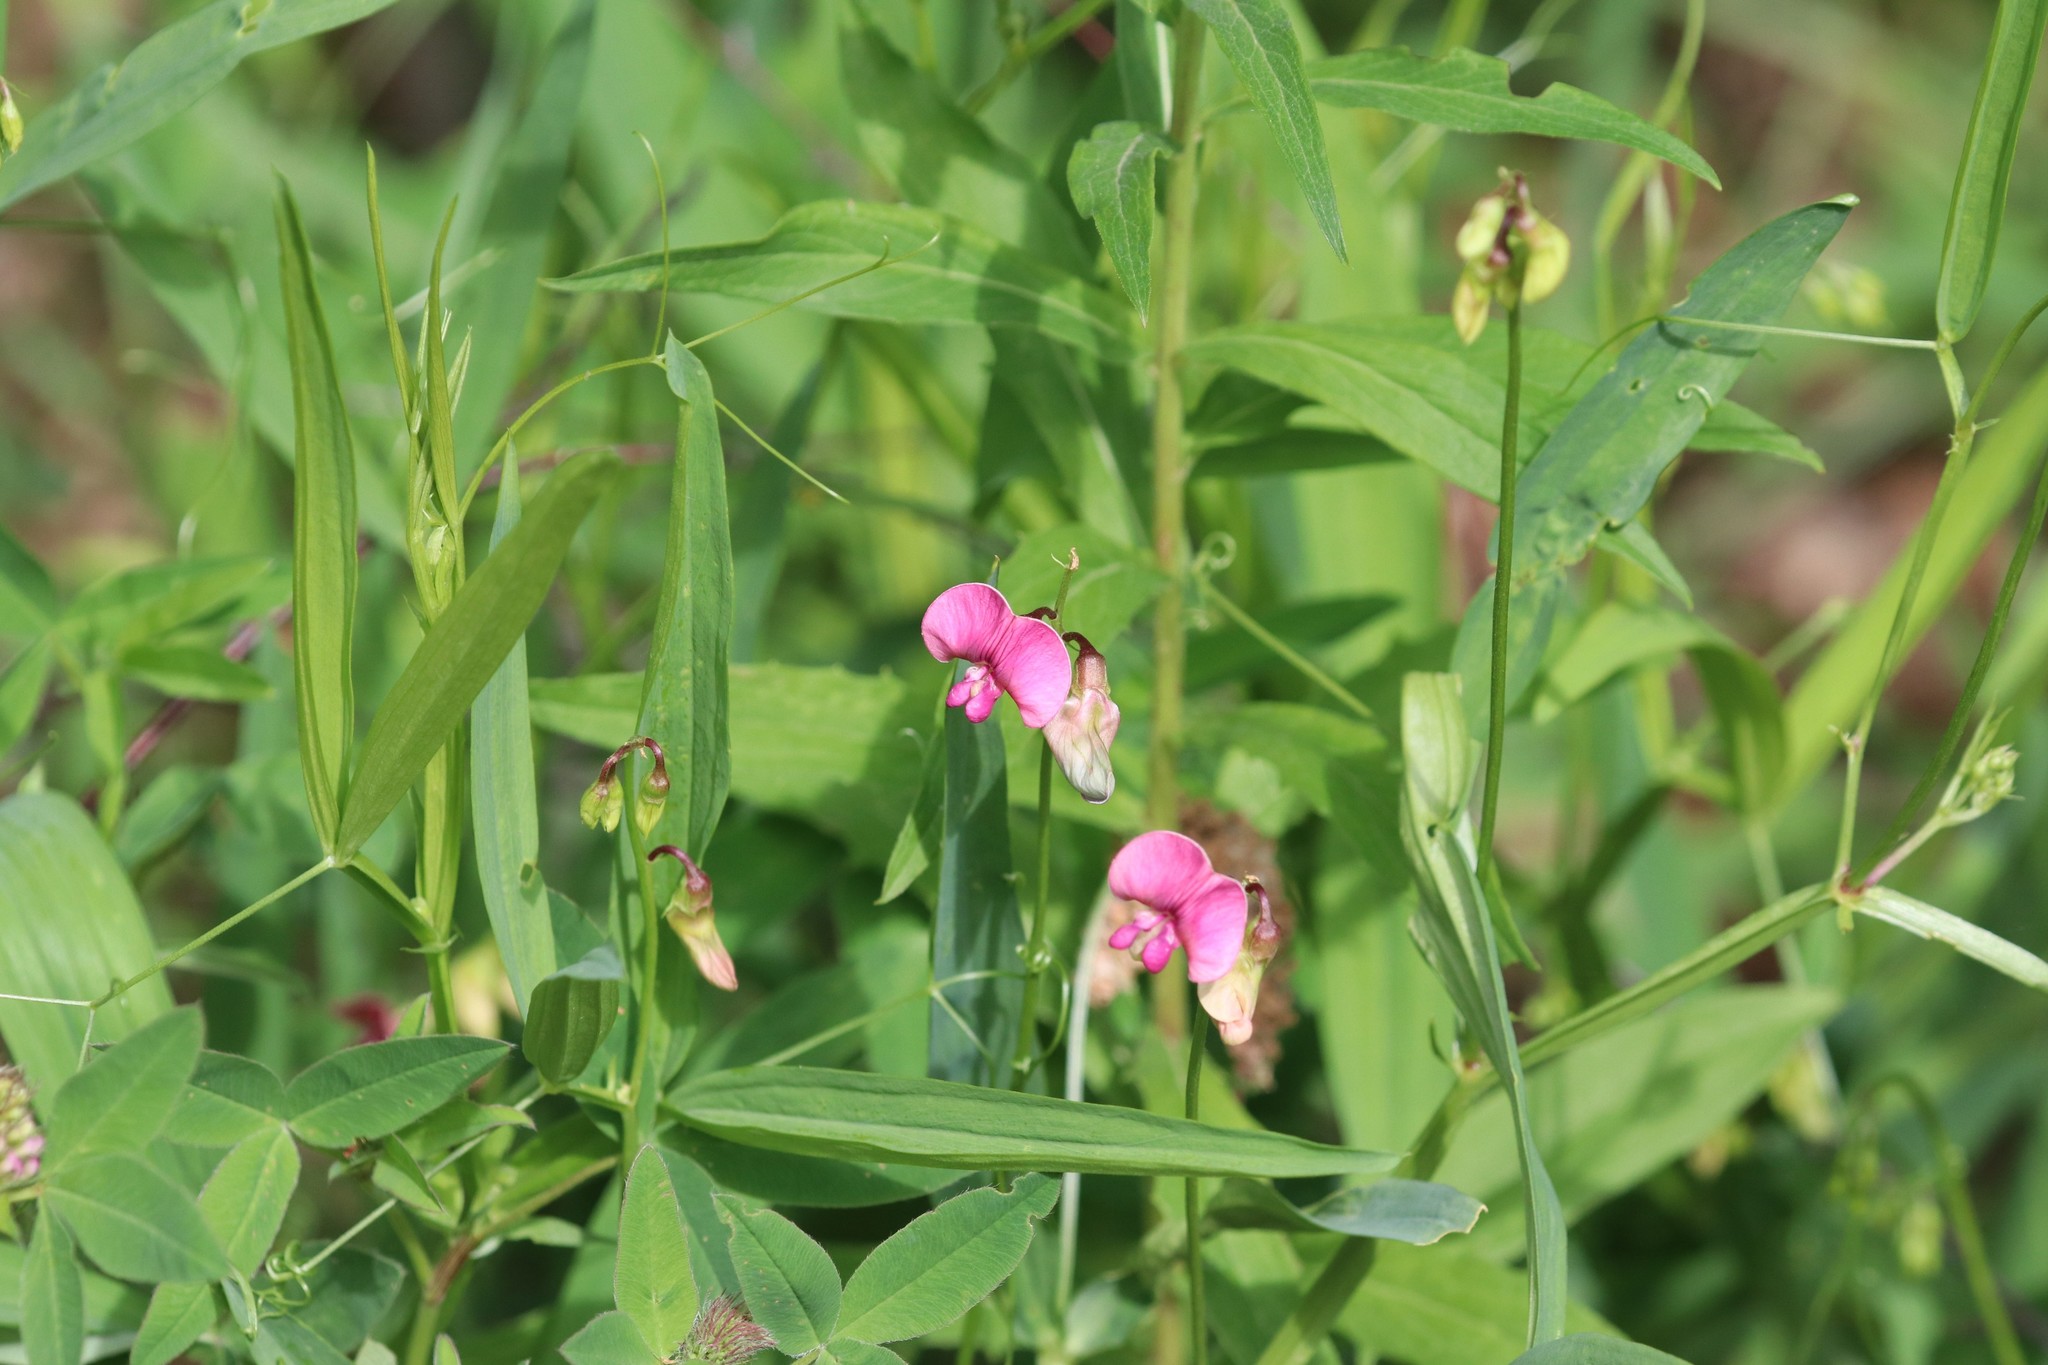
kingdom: Plantae
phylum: Tracheophyta
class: Magnoliopsida
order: Fabales
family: Fabaceae
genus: Lathyrus
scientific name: Lathyrus sylvestris
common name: Flat pea
